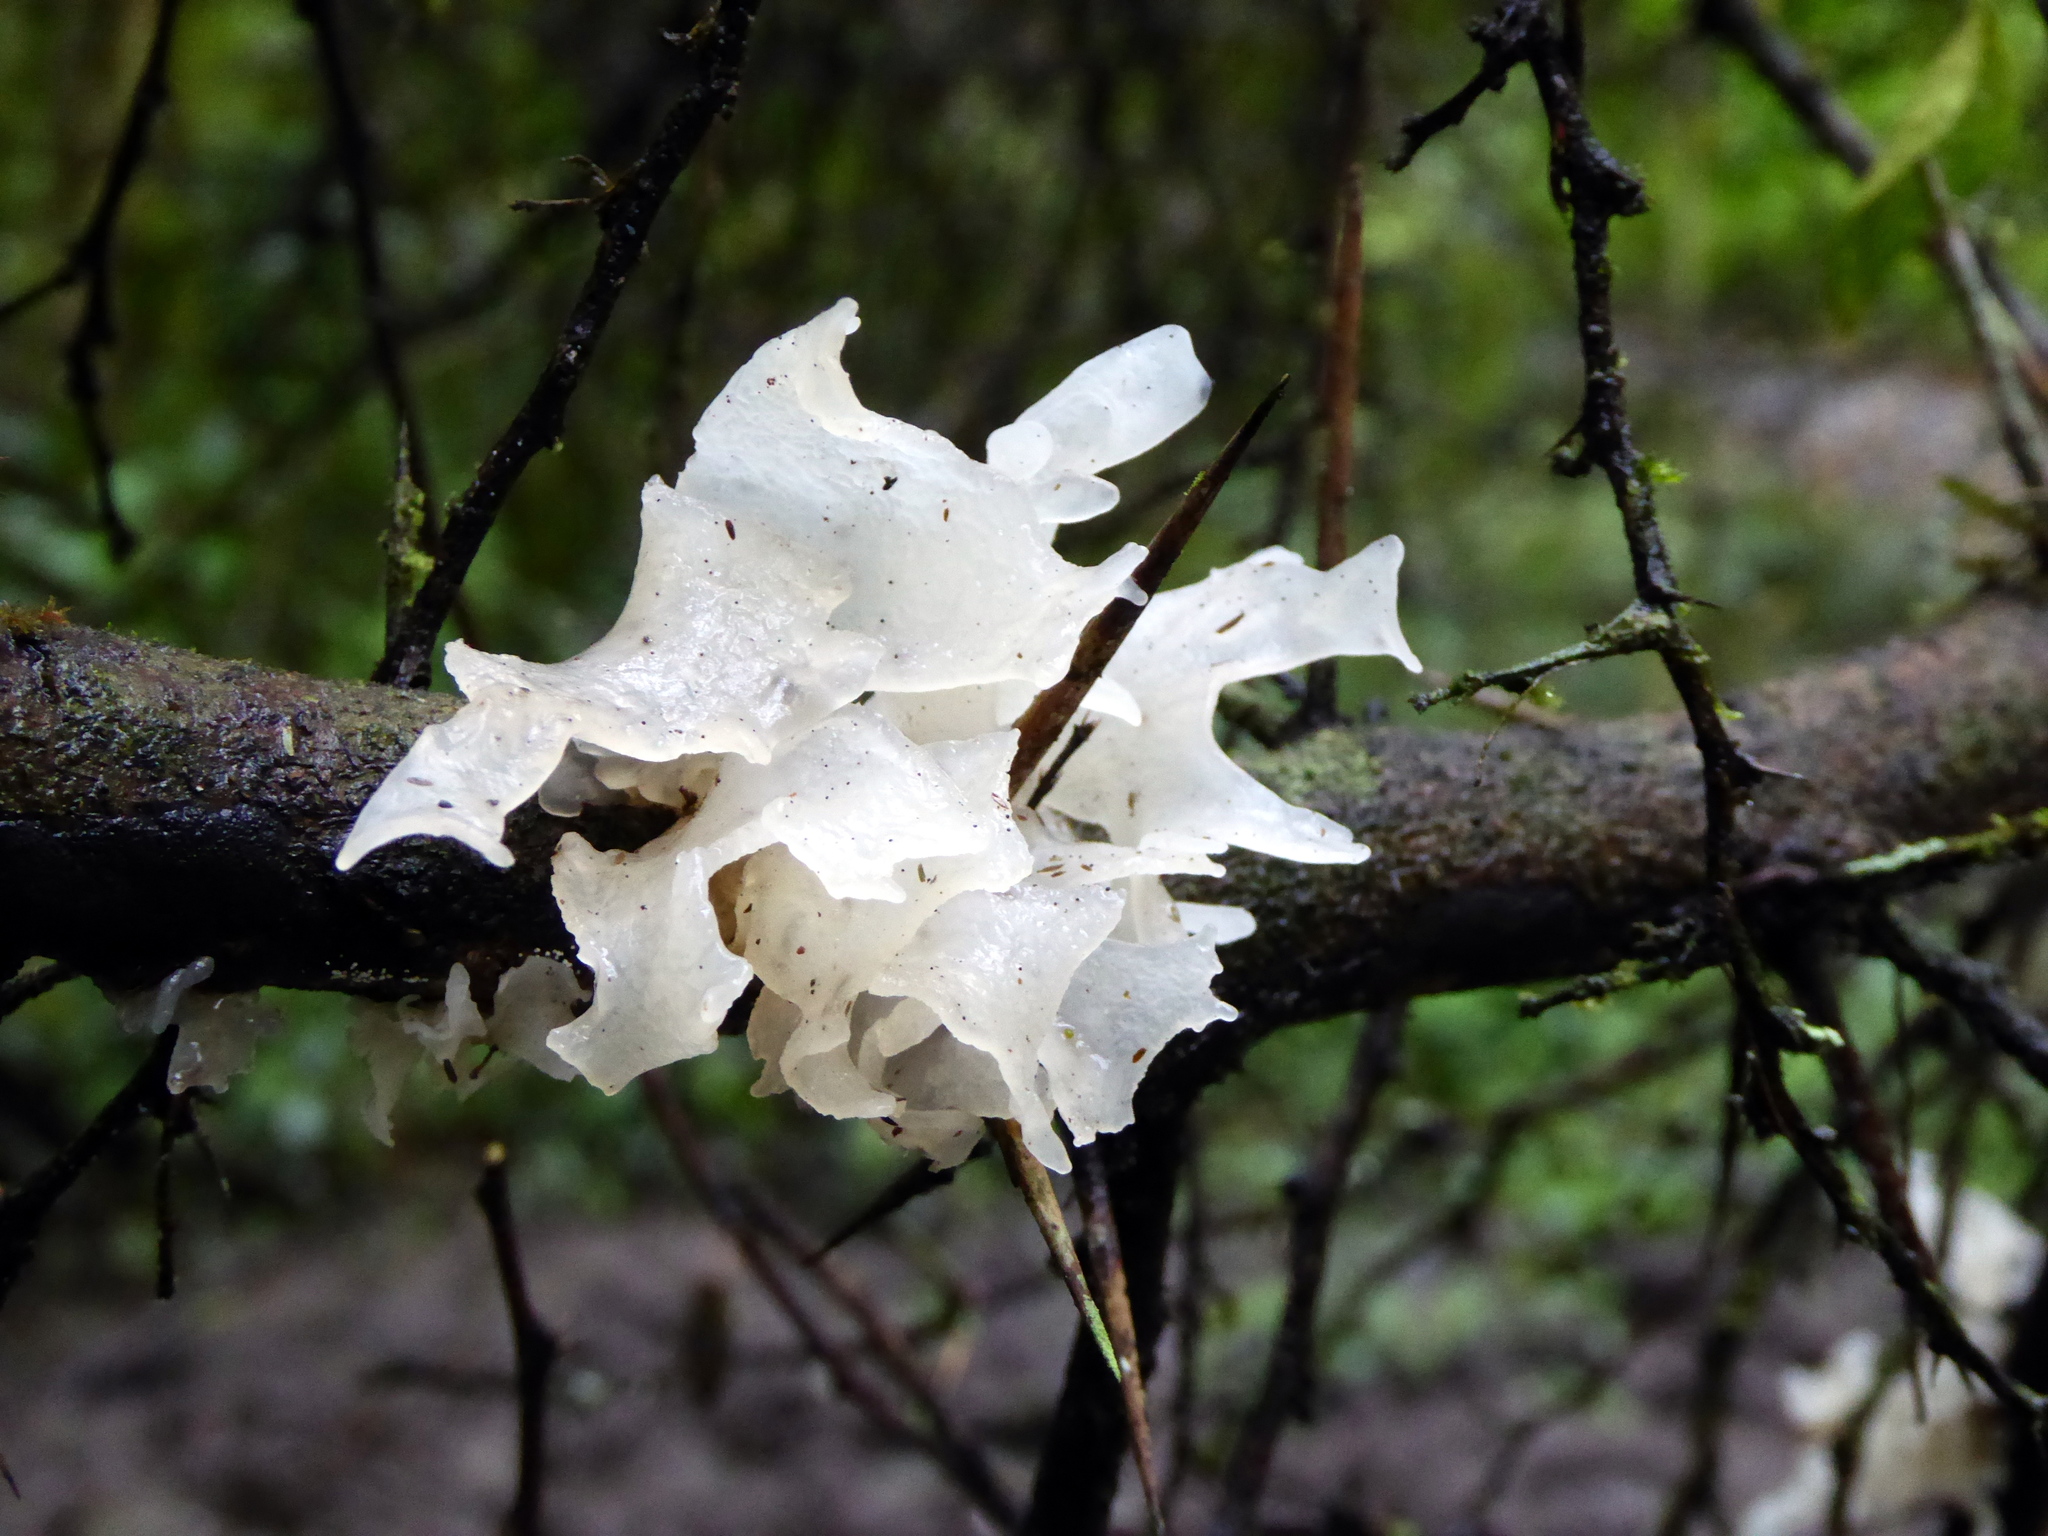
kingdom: Fungi
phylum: Basidiomycota
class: Tremellomycetes
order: Tremellales
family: Tremellaceae
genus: Tremella
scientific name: Tremella fuciformis
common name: Snow fungus
